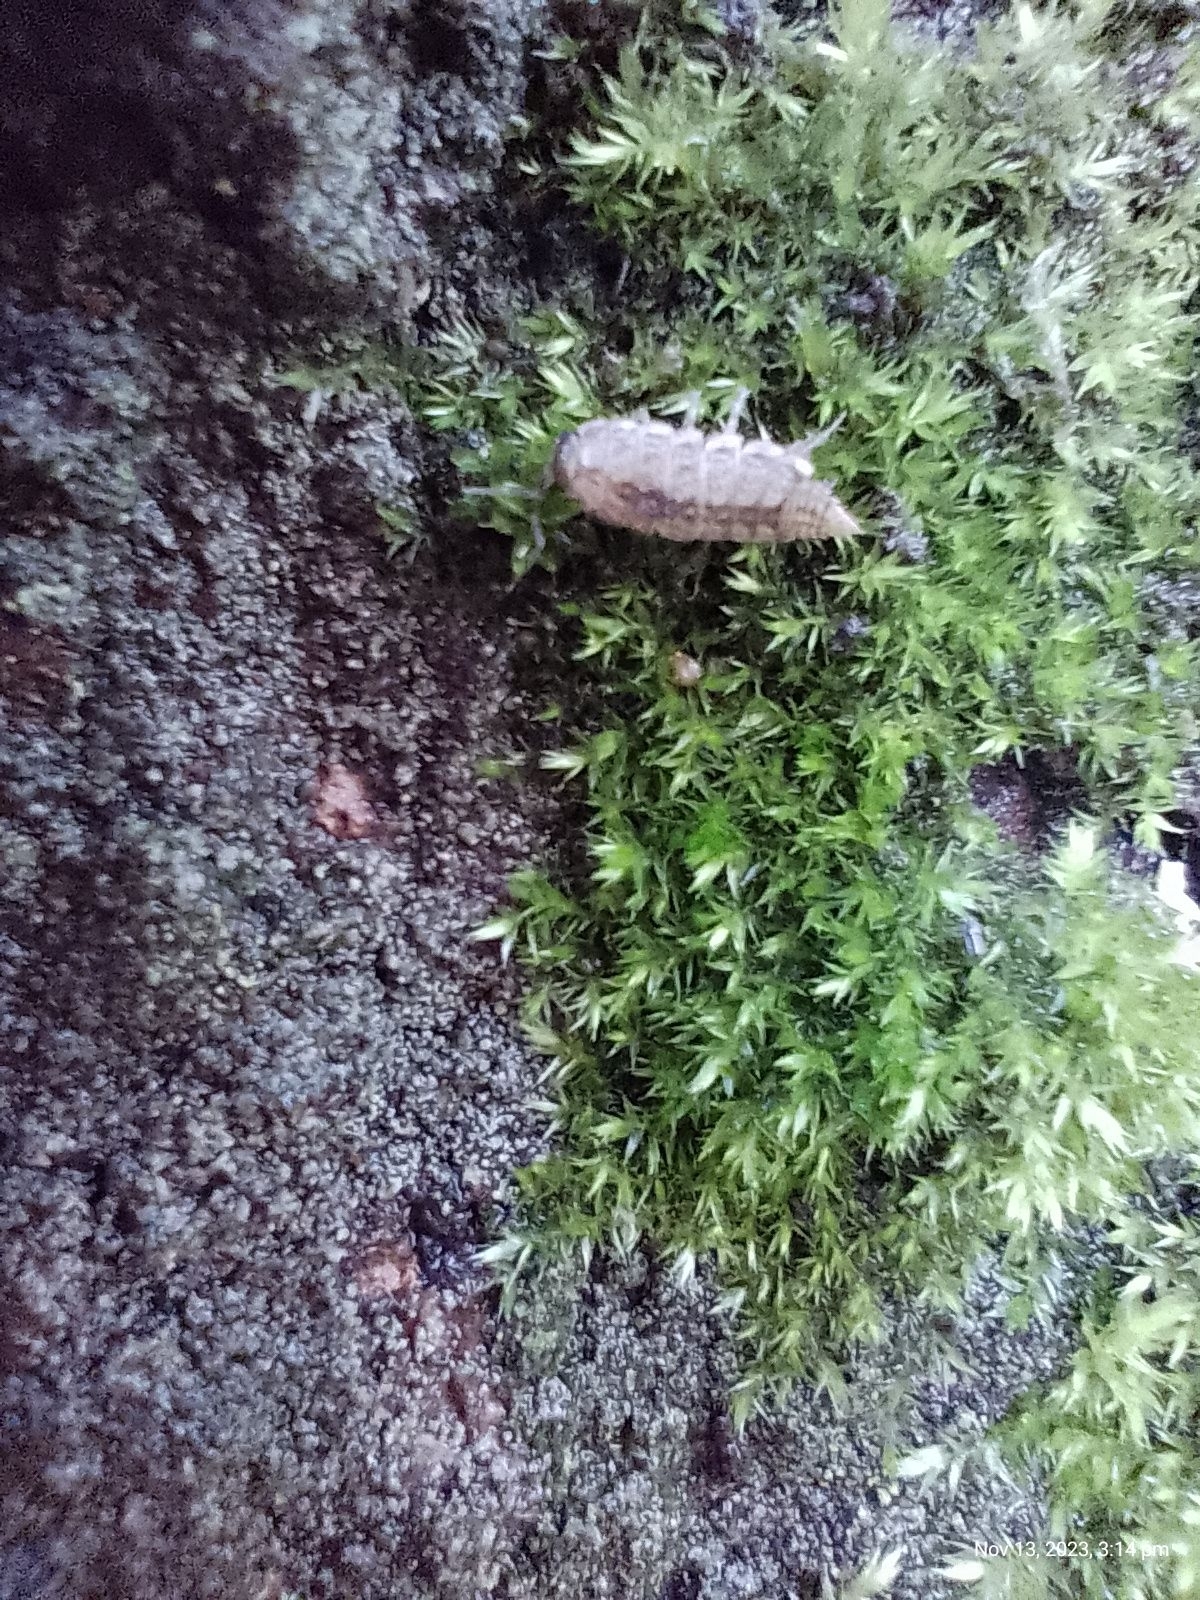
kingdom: Animalia
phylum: Arthropoda
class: Malacostraca
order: Isopoda
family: Philosciidae
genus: Philoscia
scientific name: Philoscia muscorum
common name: Common striped woodlouse
